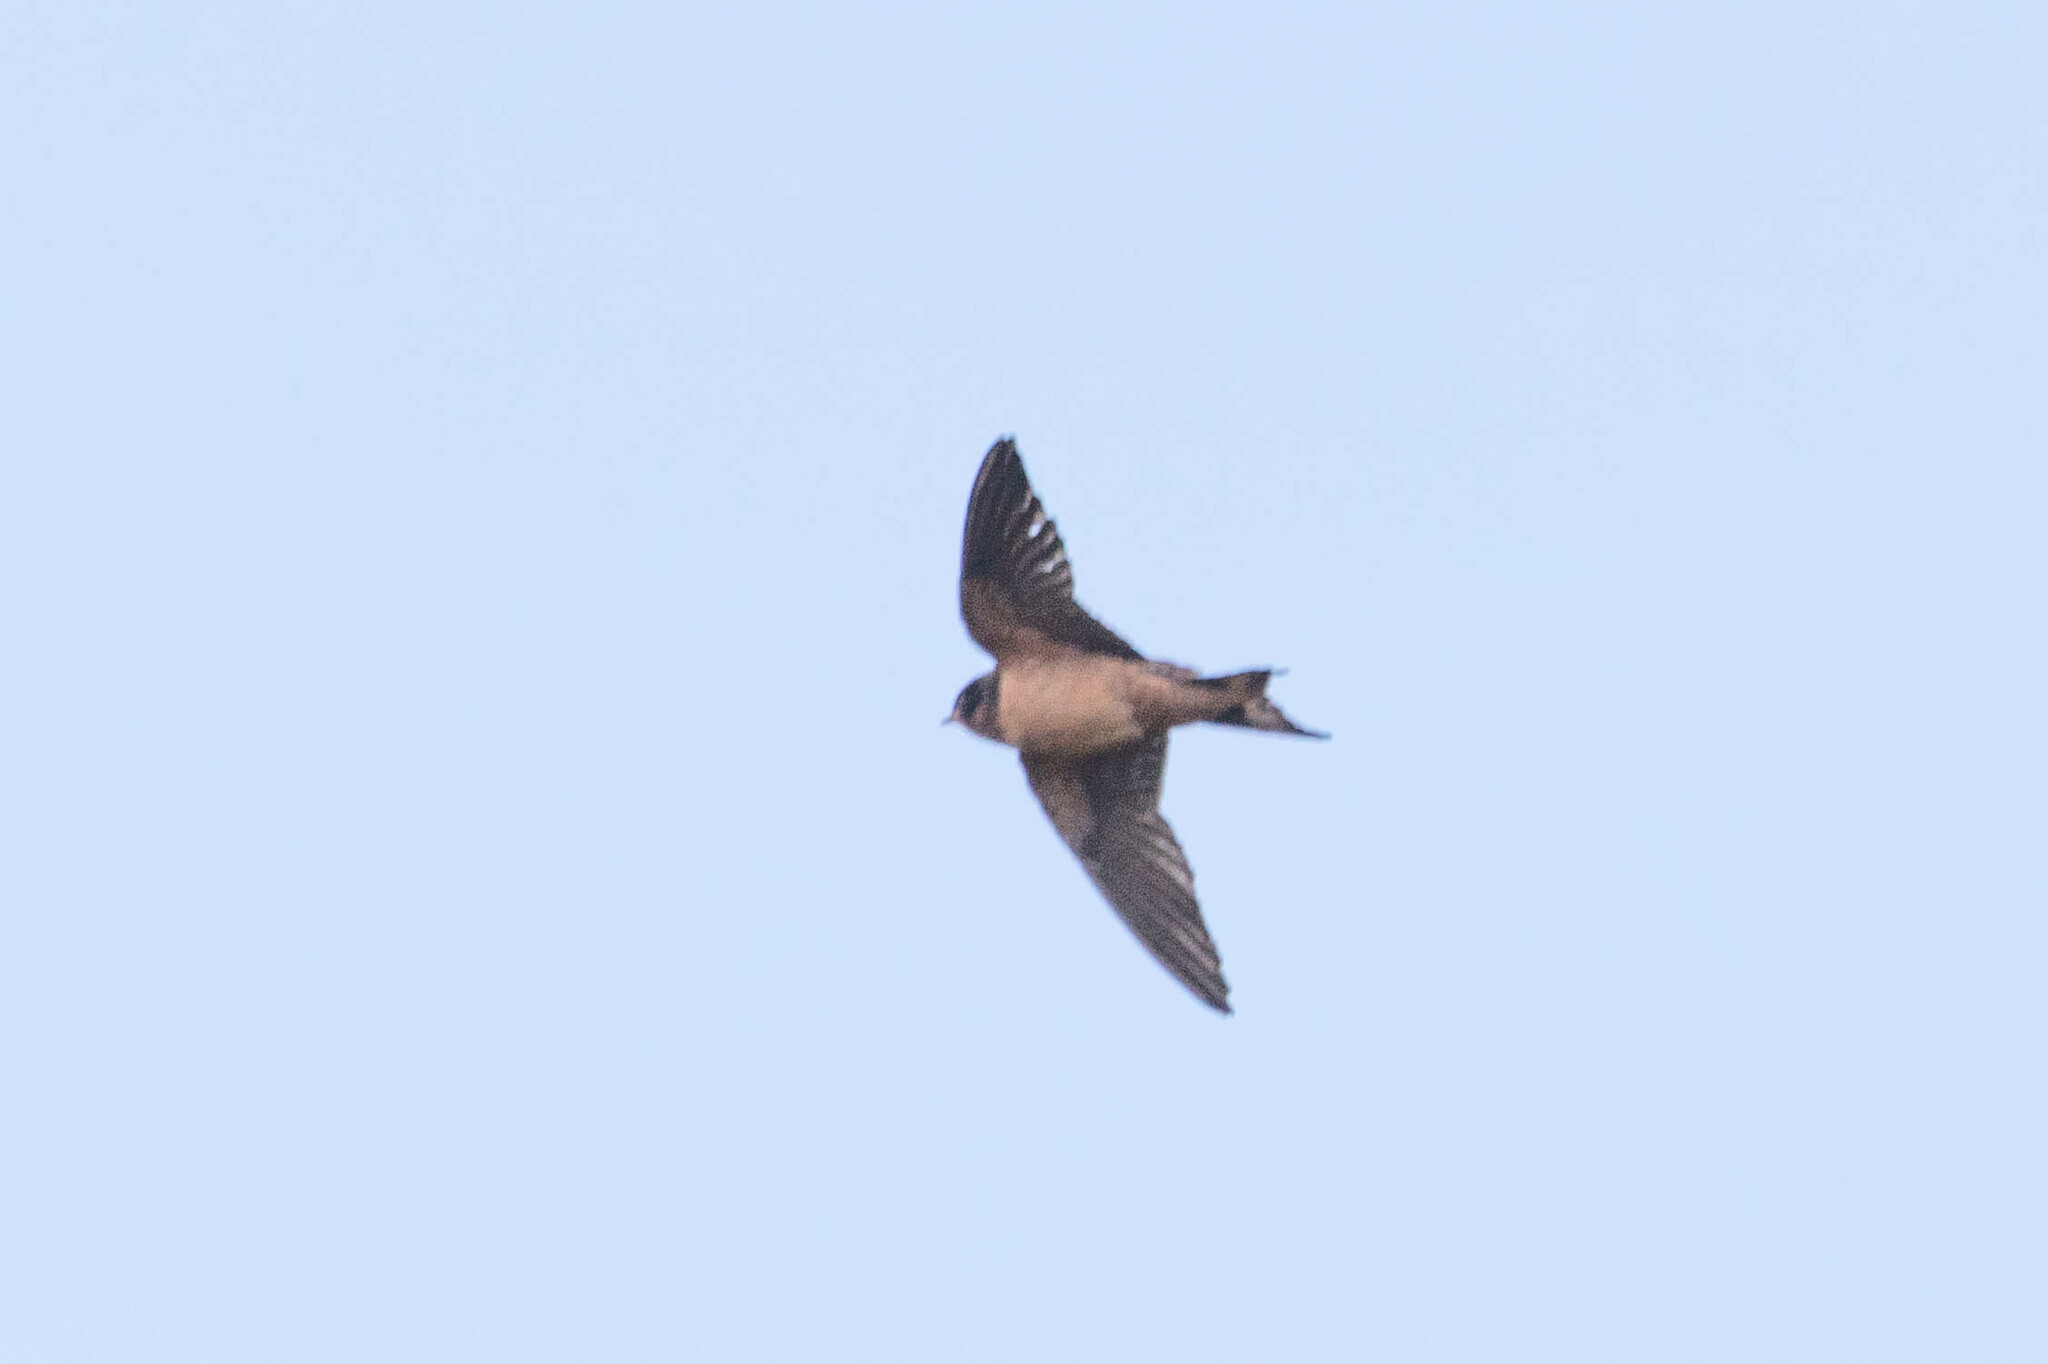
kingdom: Animalia
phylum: Chordata
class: Aves
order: Passeriformes
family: Hirundinidae
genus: Hirundo
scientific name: Hirundo rustica
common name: Barn swallow
